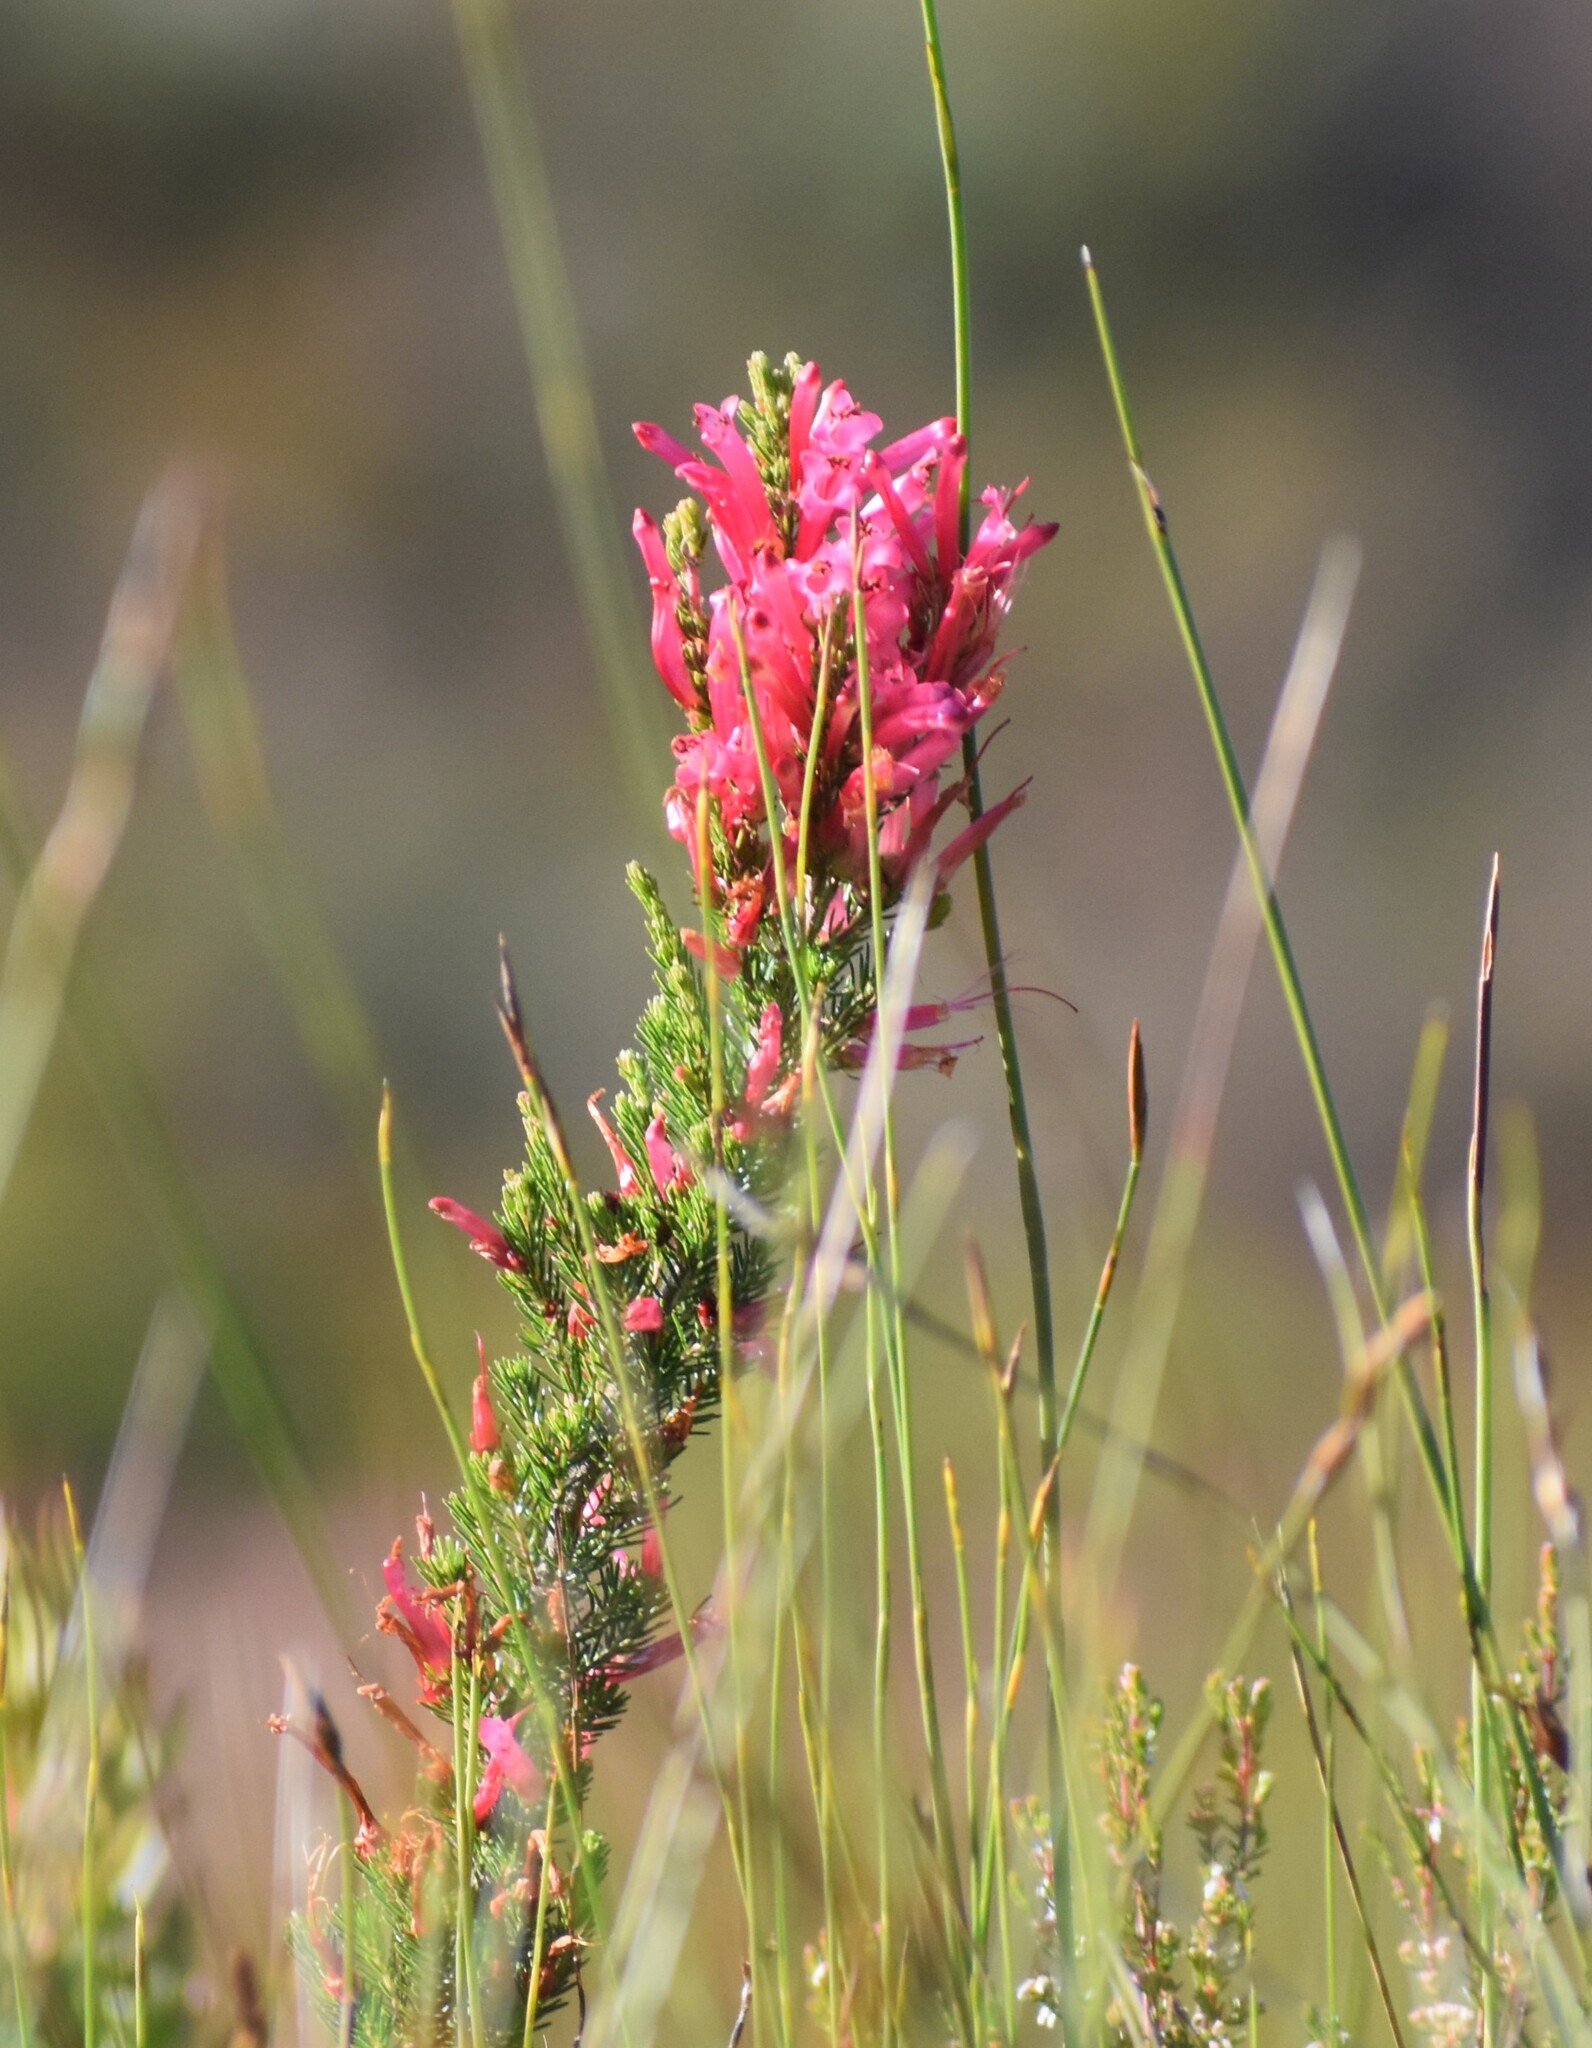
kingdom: Plantae
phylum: Tracheophyta
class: Magnoliopsida
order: Ericales
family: Ericaceae
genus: Erica
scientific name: Erica curviflora
